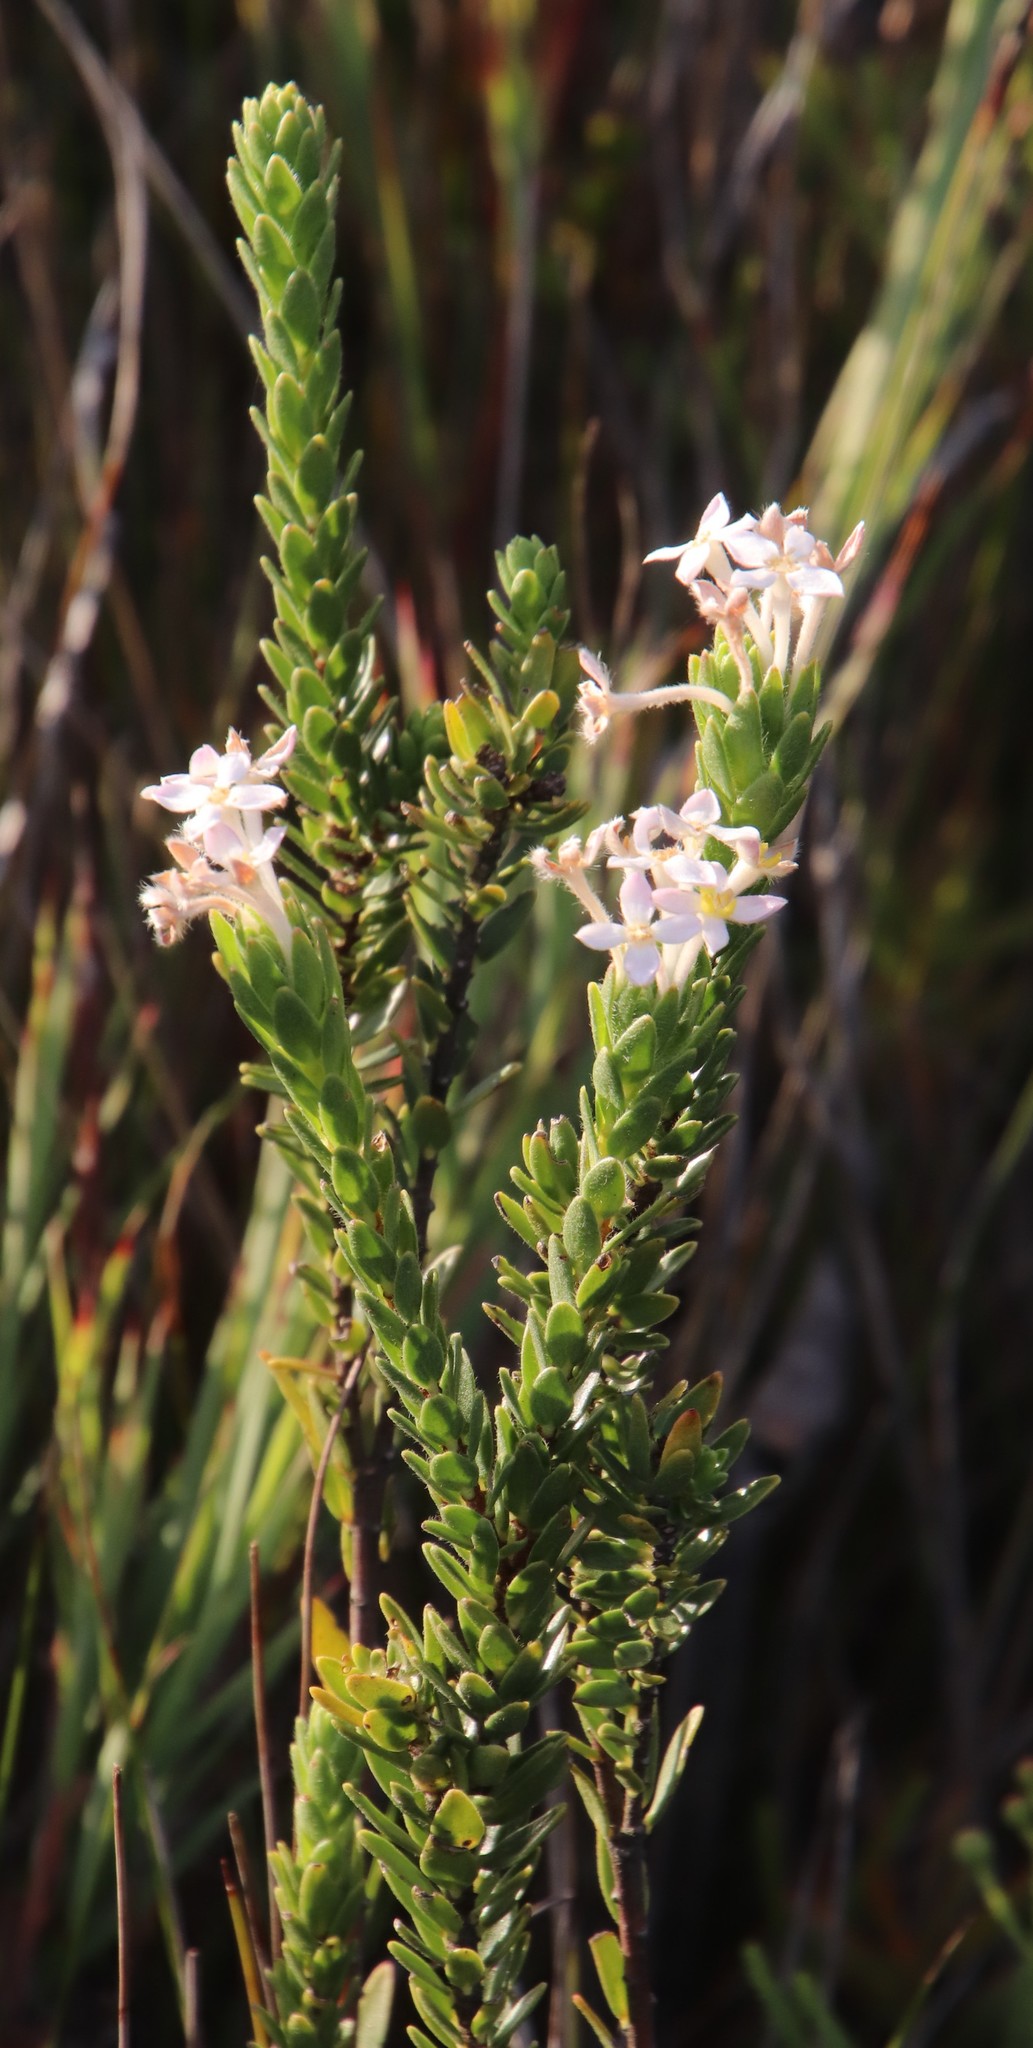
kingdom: Plantae
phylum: Tracheophyta
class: Magnoliopsida
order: Malvales
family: Thymelaeaceae
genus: Gnidia
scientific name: Gnidia tomentosa
